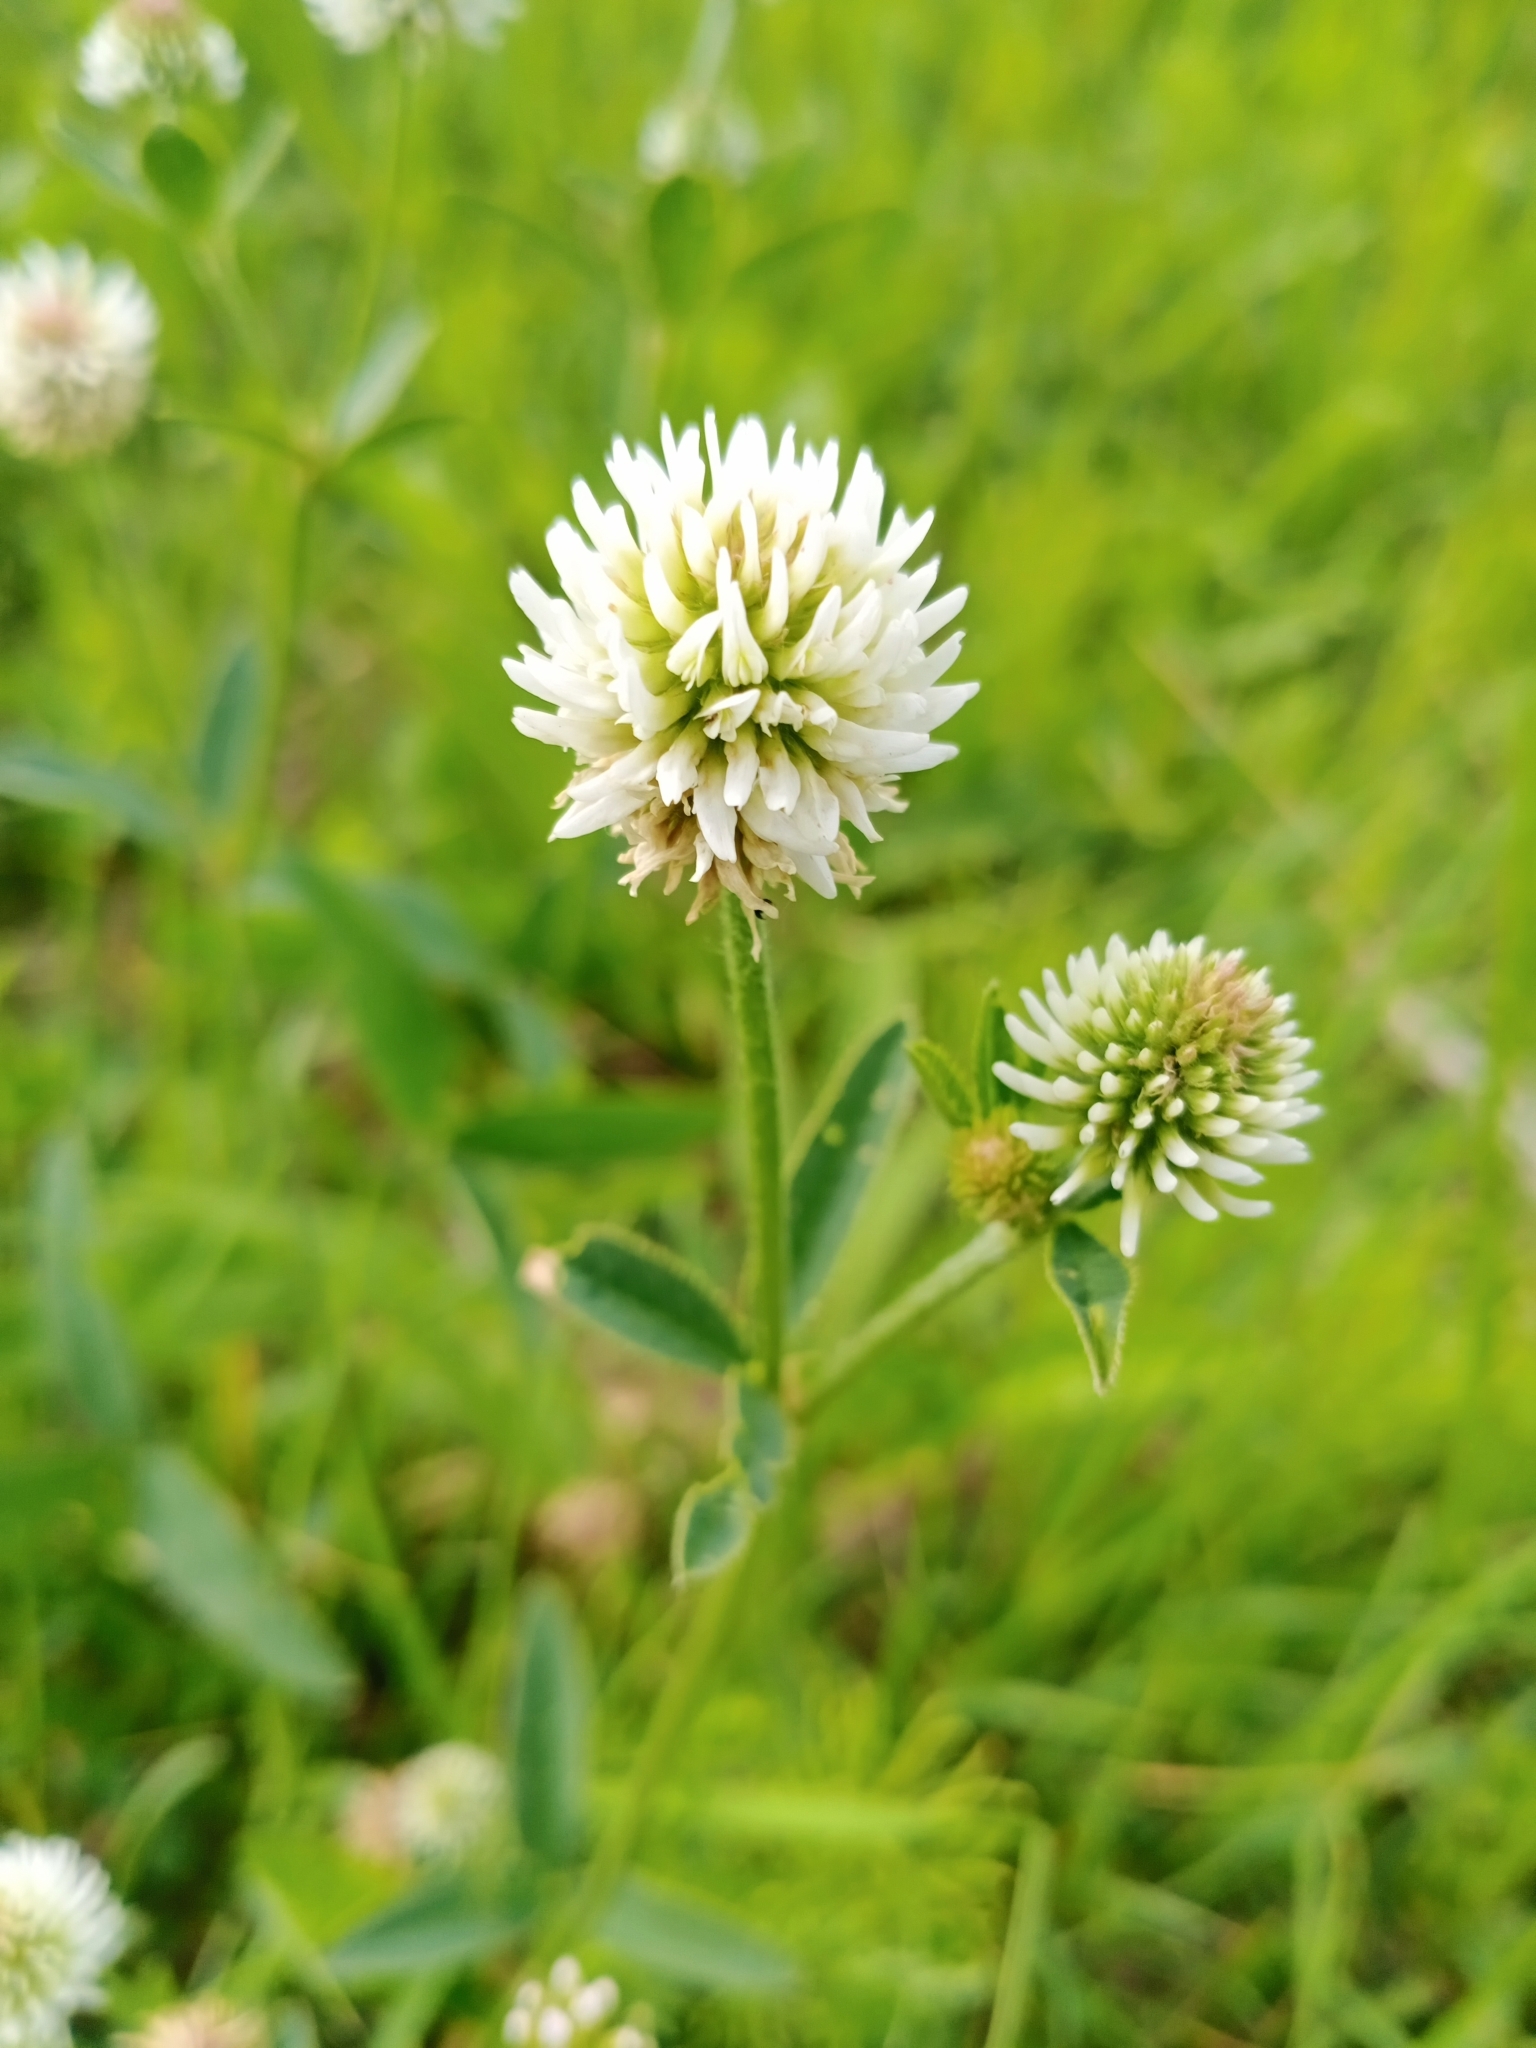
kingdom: Plantae
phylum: Tracheophyta
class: Magnoliopsida
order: Fabales
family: Fabaceae
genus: Trifolium
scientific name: Trifolium montanum
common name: Mountain clover
